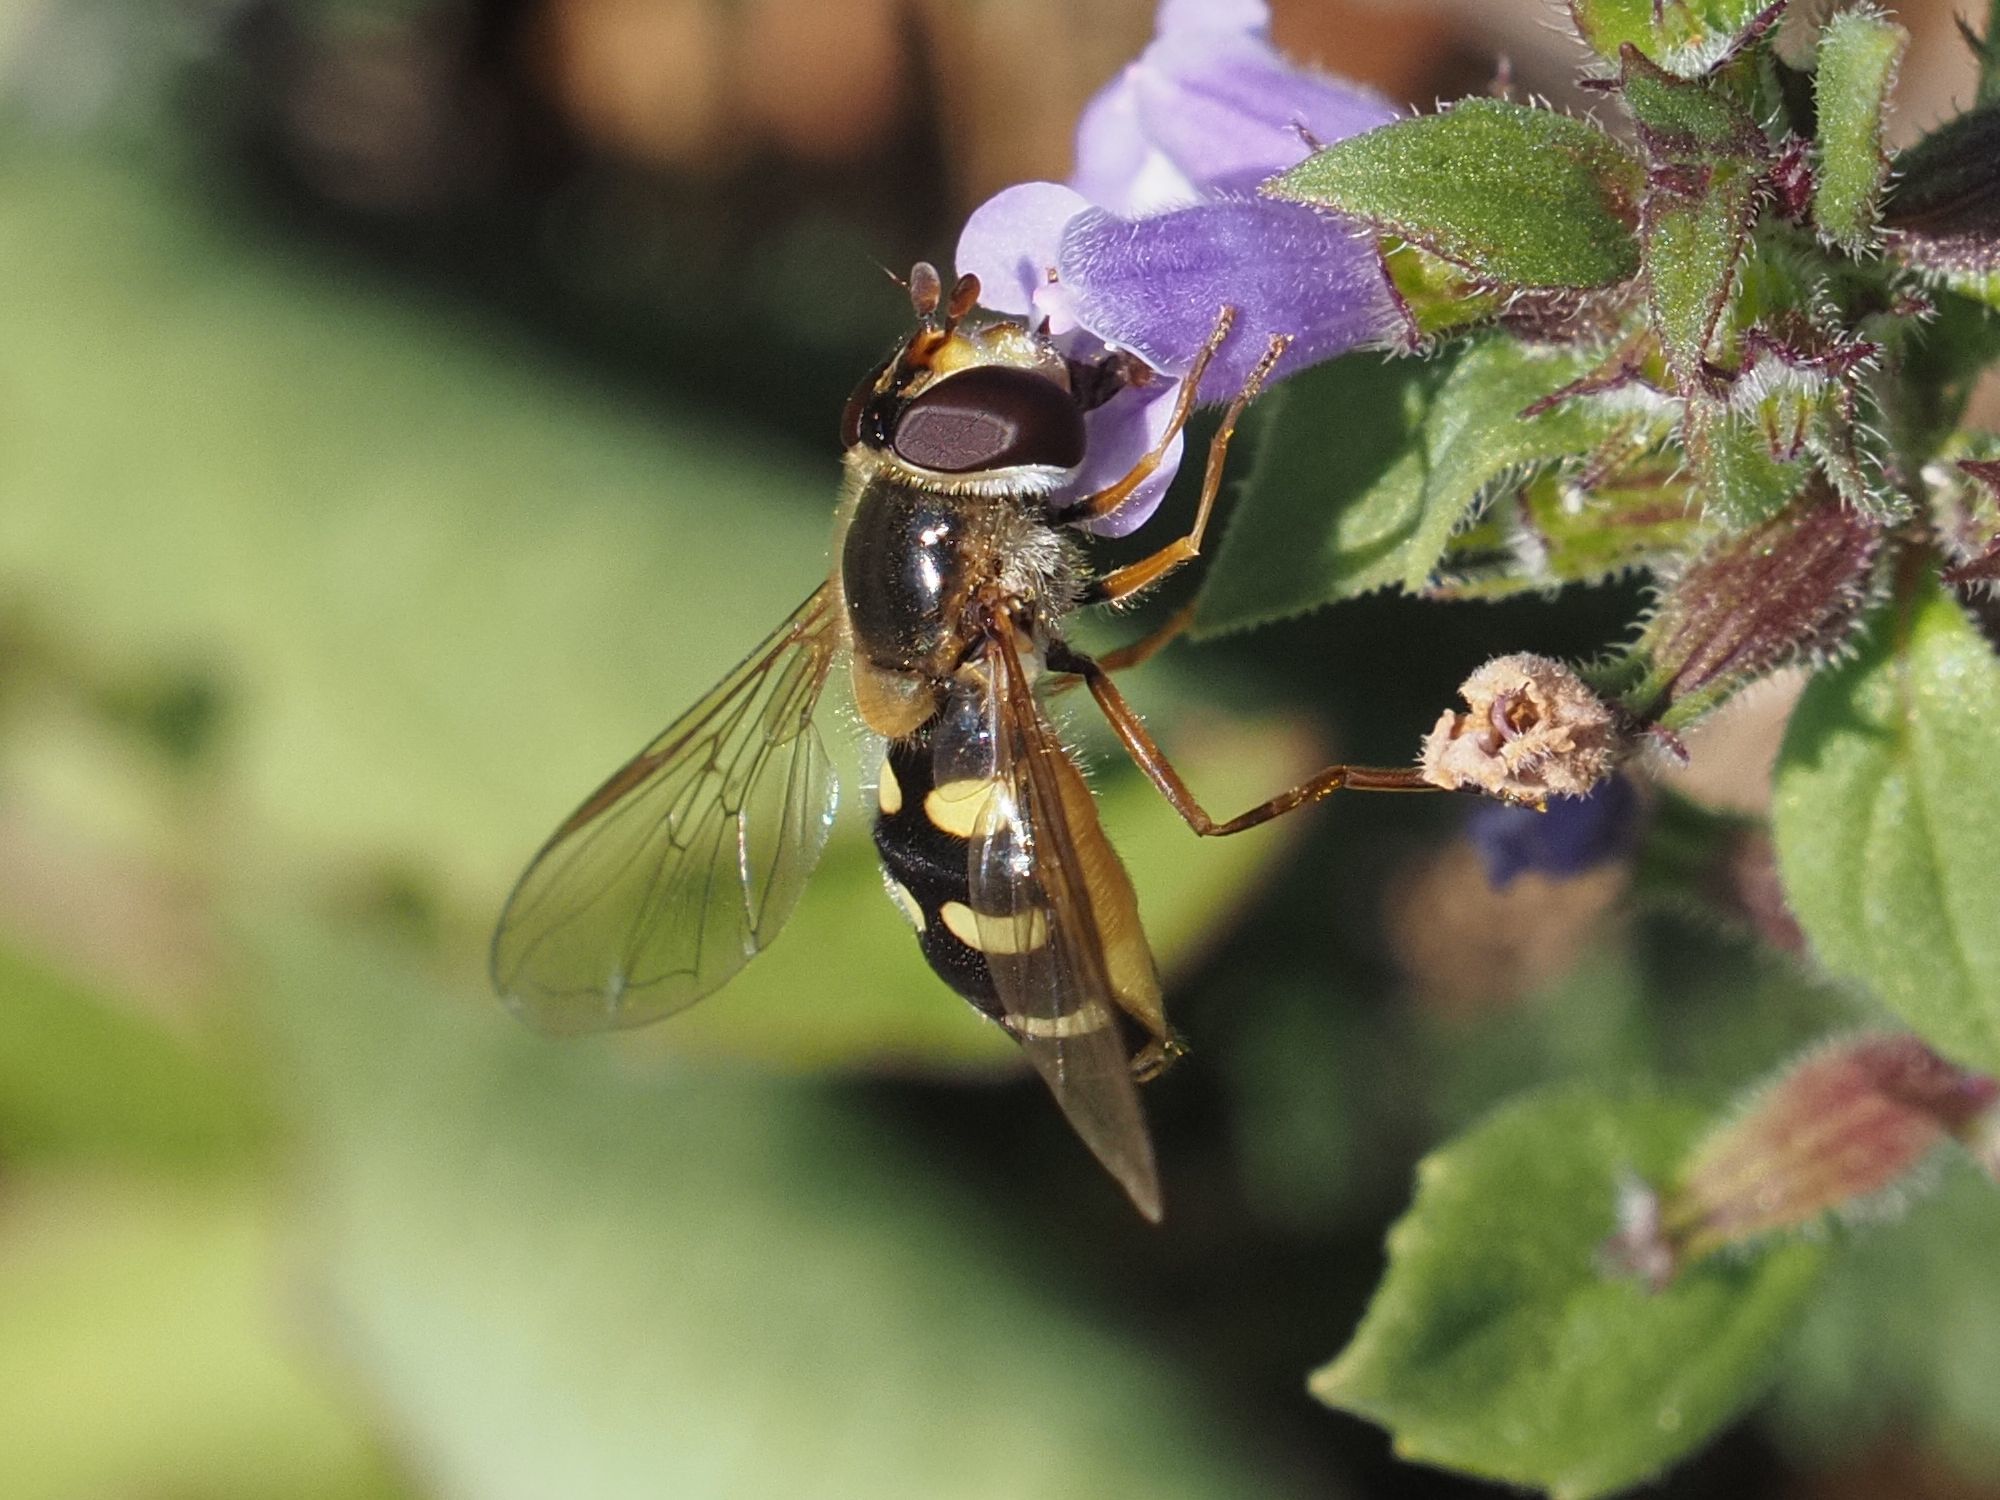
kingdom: Animalia
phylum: Arthropoda
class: Insecta
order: Diptera
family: Syrphidae
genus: Eupeodes
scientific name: Eupeodes luniger
